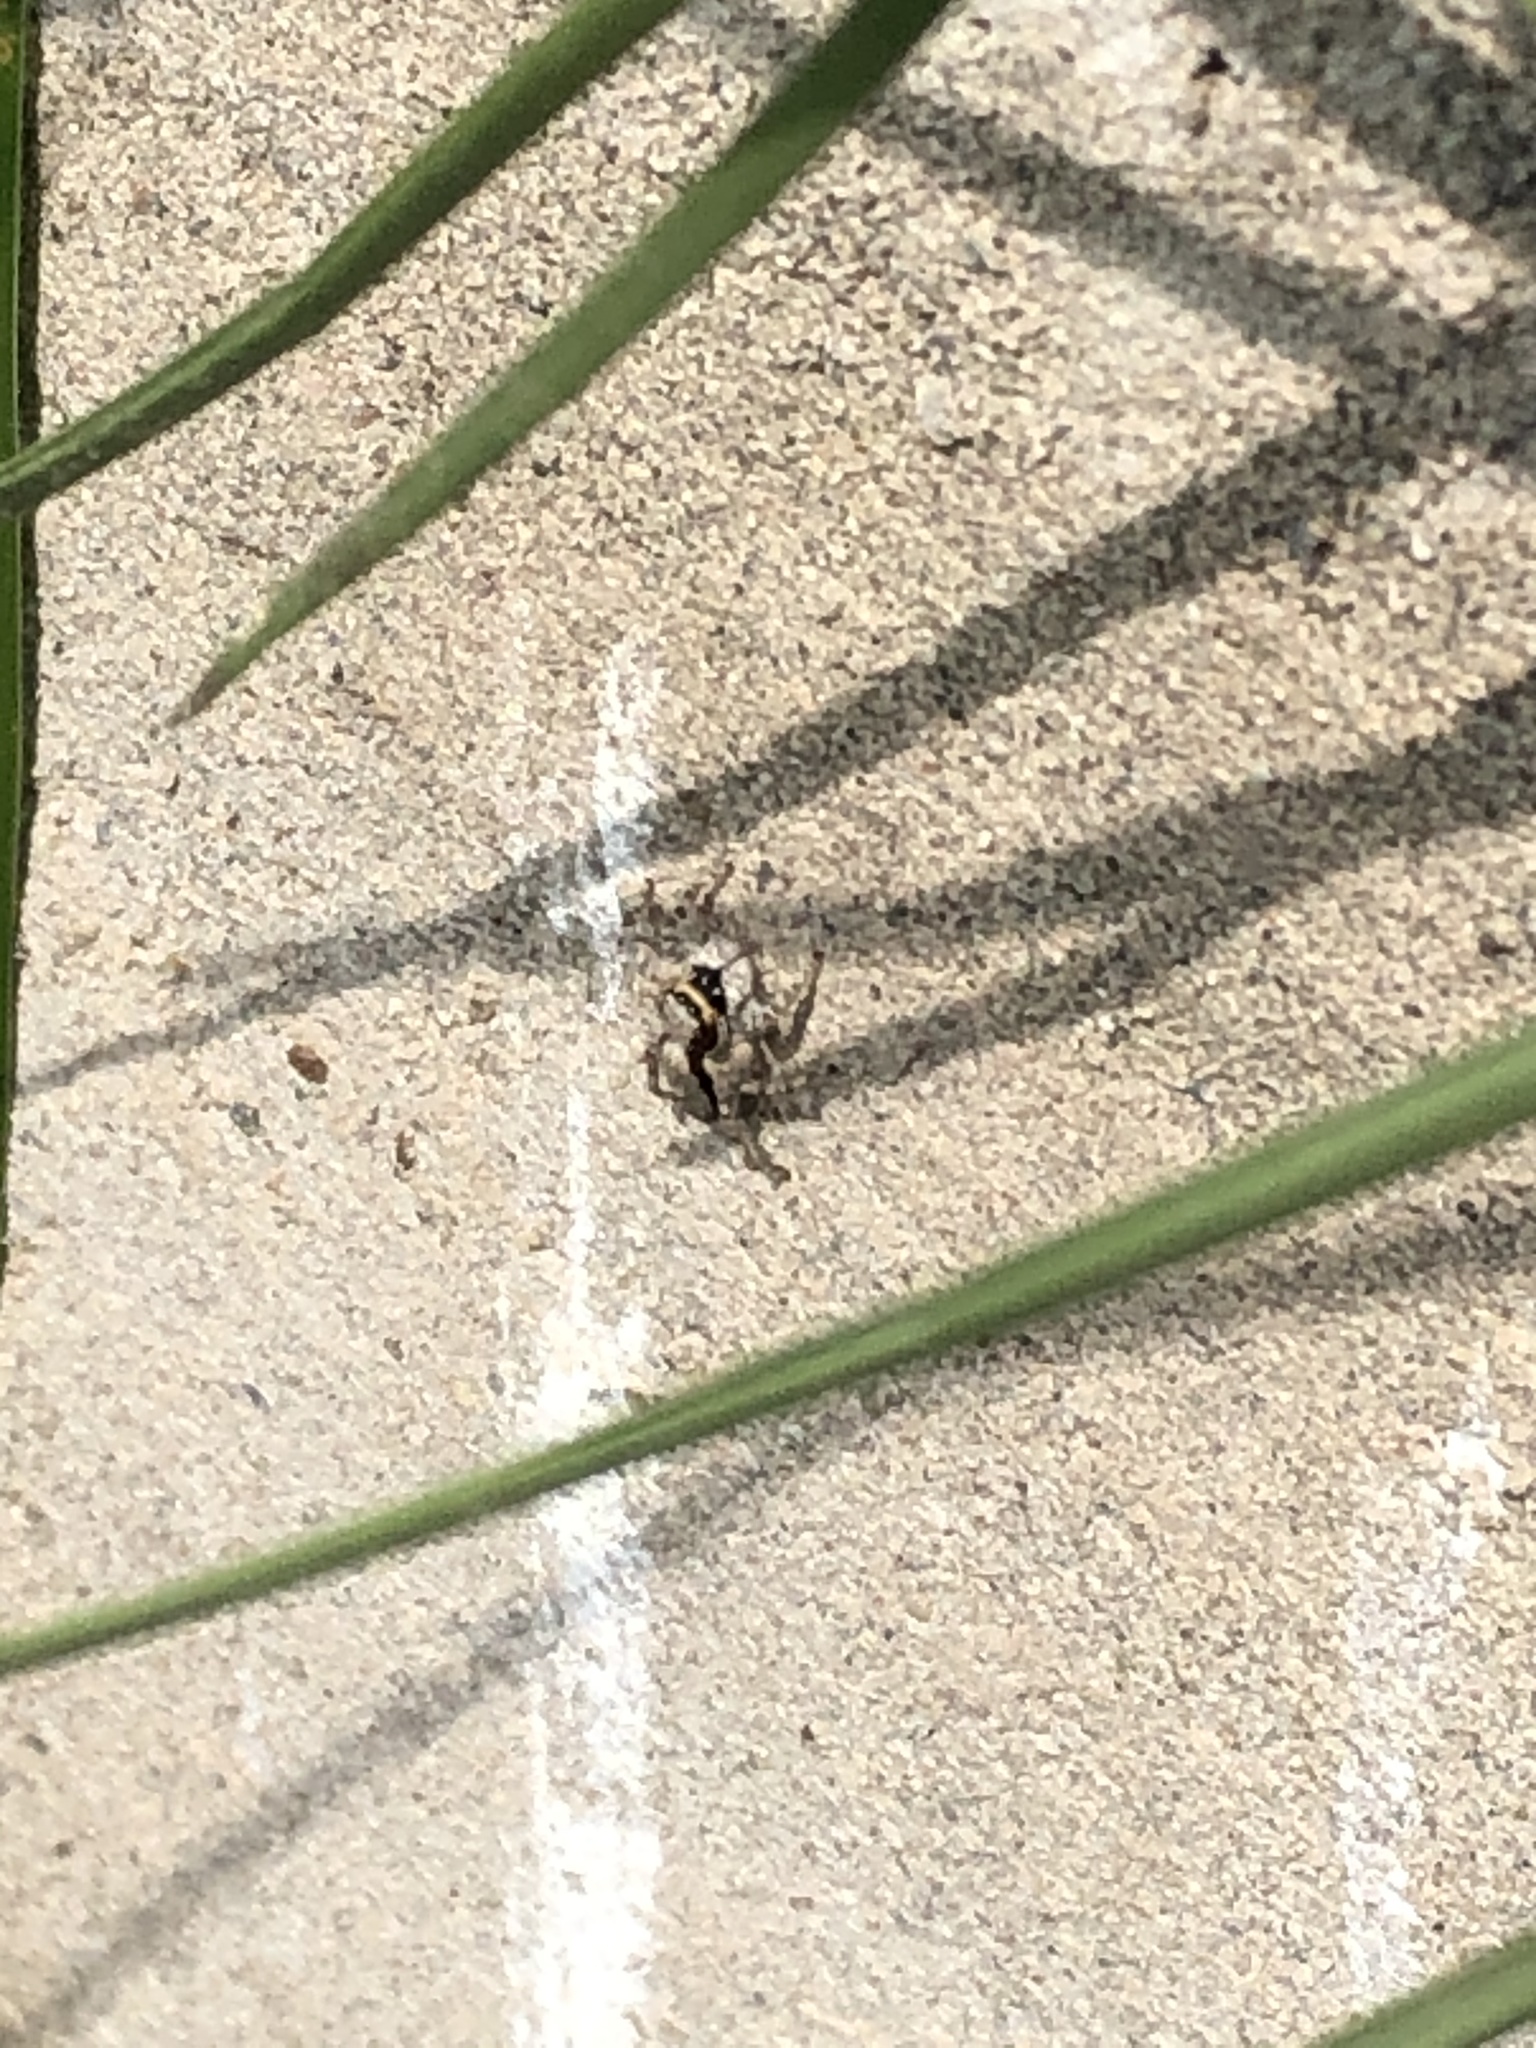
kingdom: Animalia
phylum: Arthropoda
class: Arachnida
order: Araneae
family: Salticidae
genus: Menemerus
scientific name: Menemerus bivittatus
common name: Gray wall jumper
